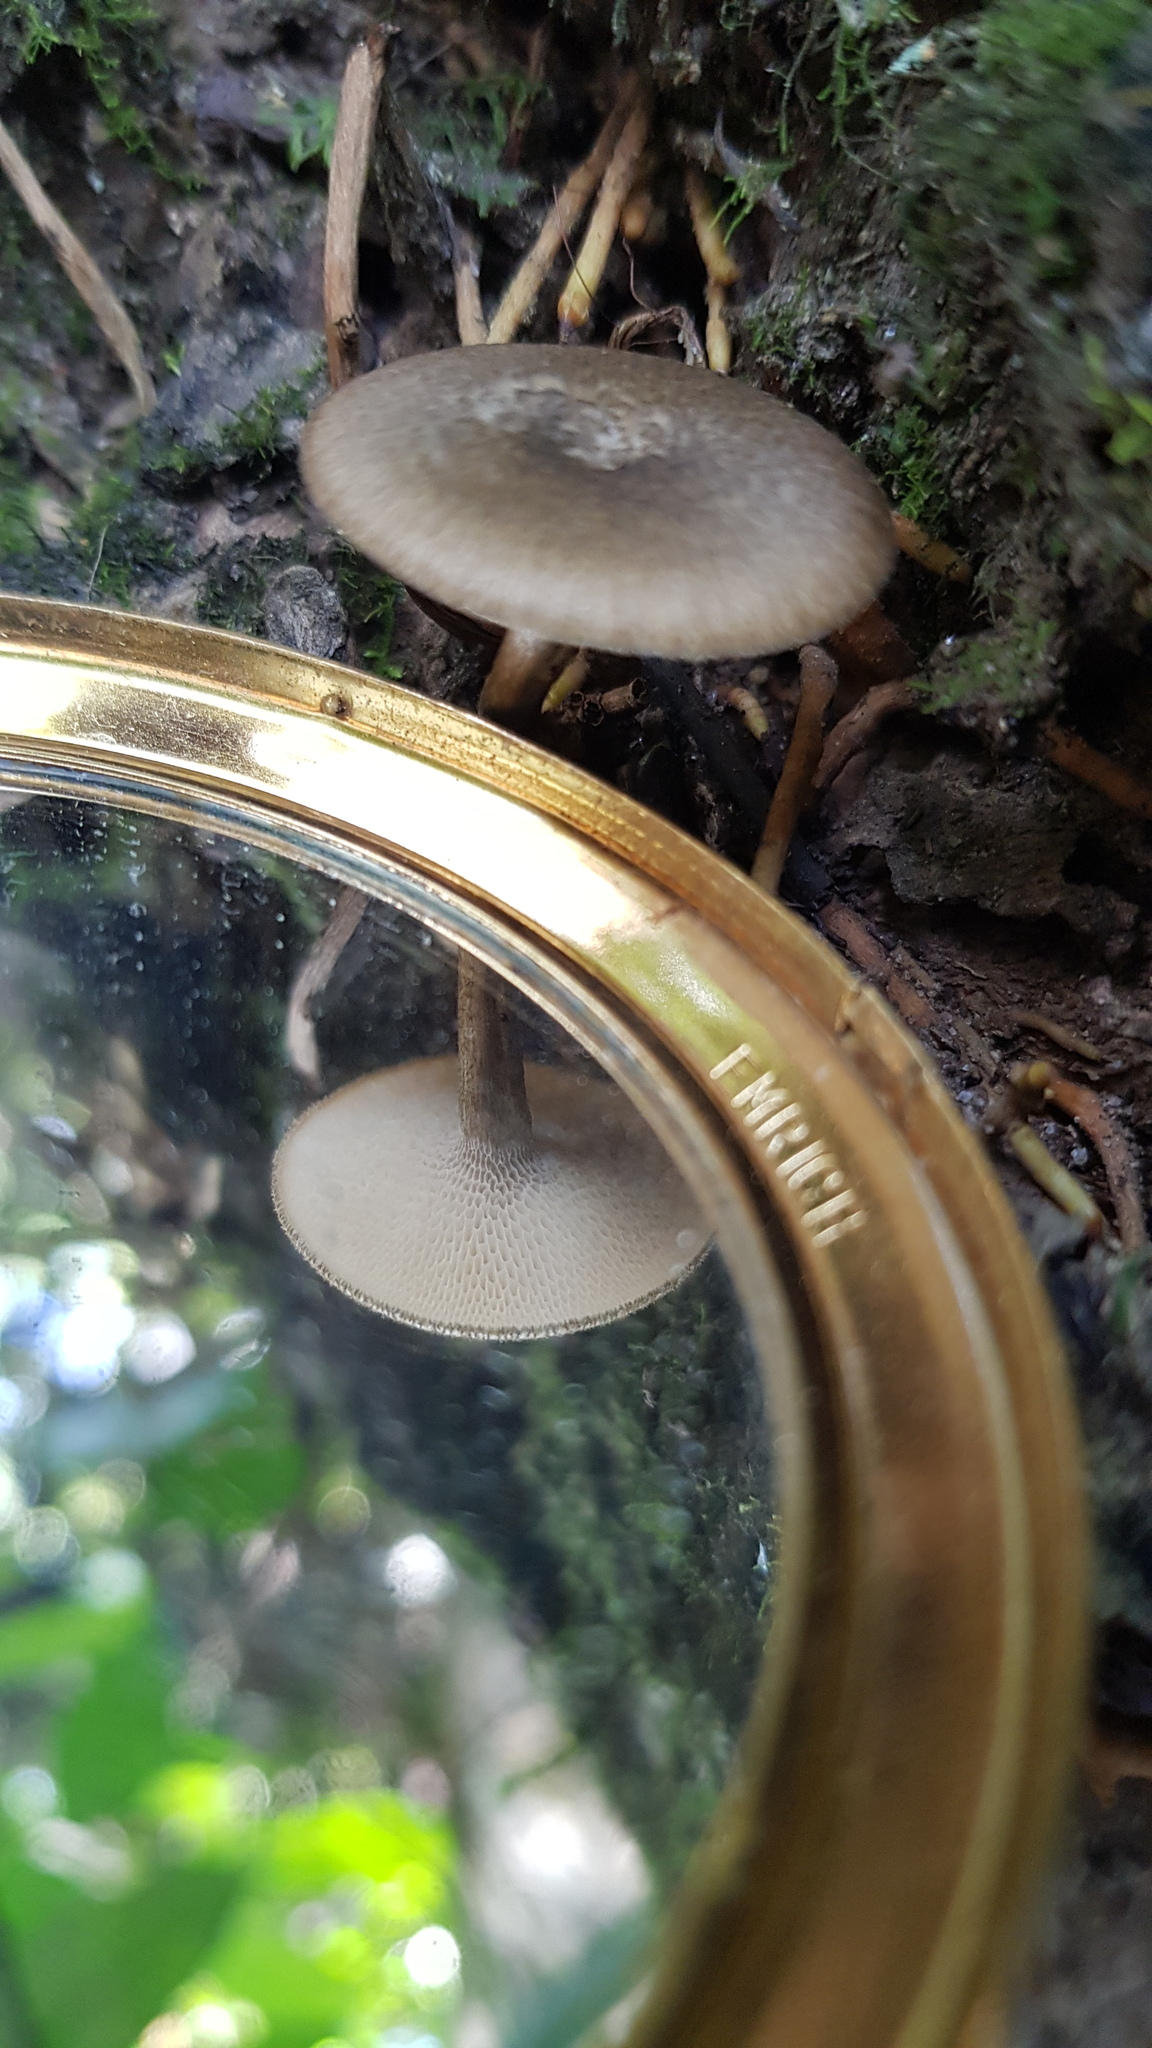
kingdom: Fungi
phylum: Basidiomycota
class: Agaricomycetes
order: Polyporales
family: Polyporaceae
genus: Lentinus
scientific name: Lentinus arcularius
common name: Spring polypore
